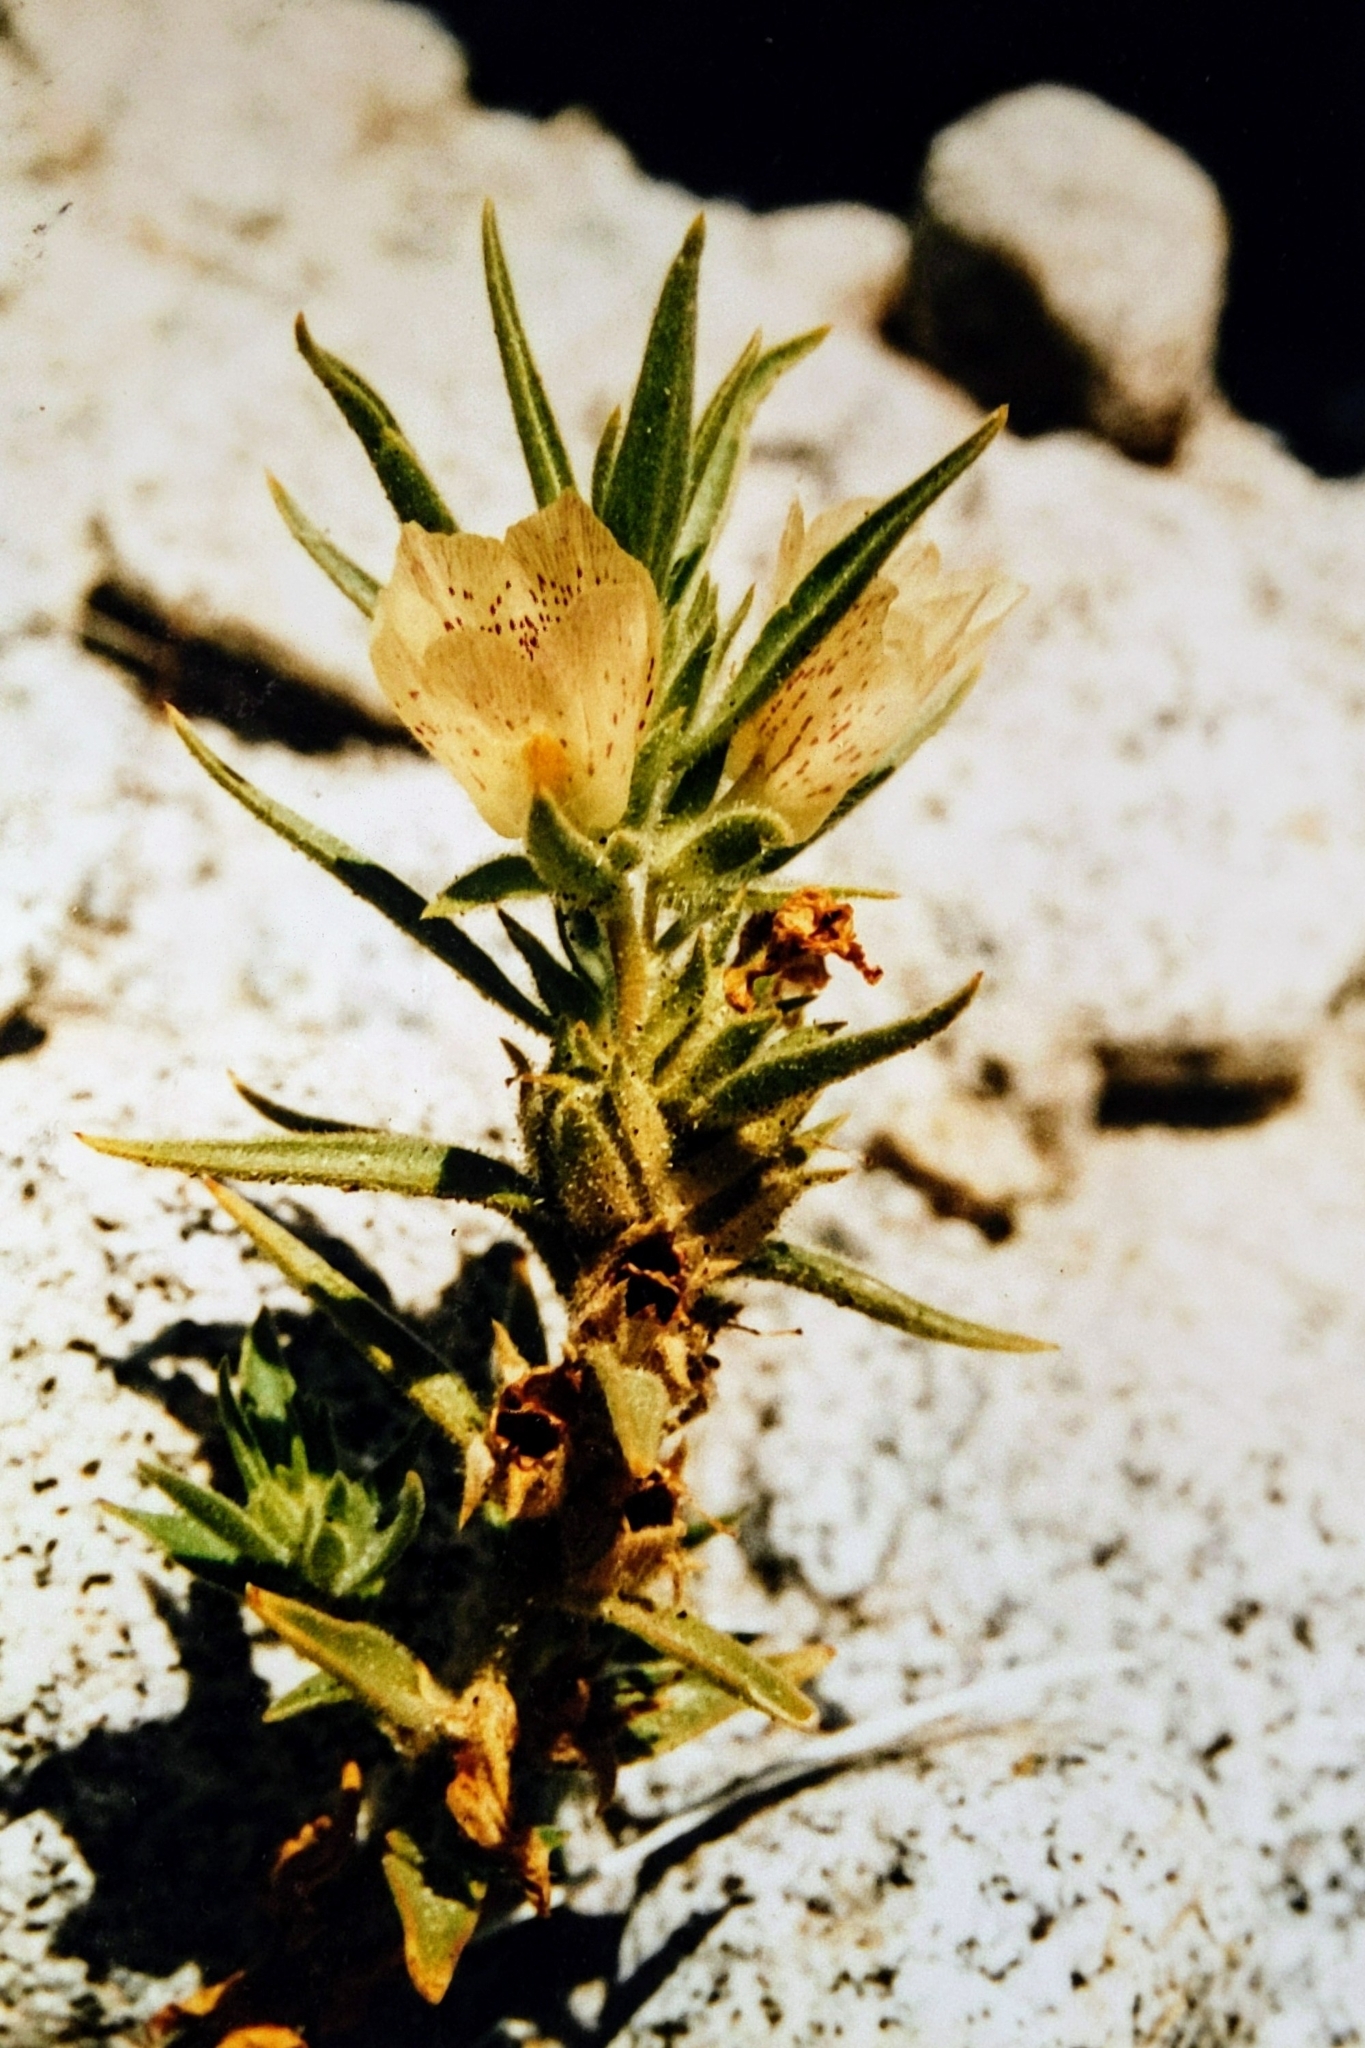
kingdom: Plantae
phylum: Tracheophyta
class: Magnoliopsida
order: Lamiales
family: Plantaginaceae
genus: Mohavea
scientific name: Mohavea confertiflora
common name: Ghost flower
